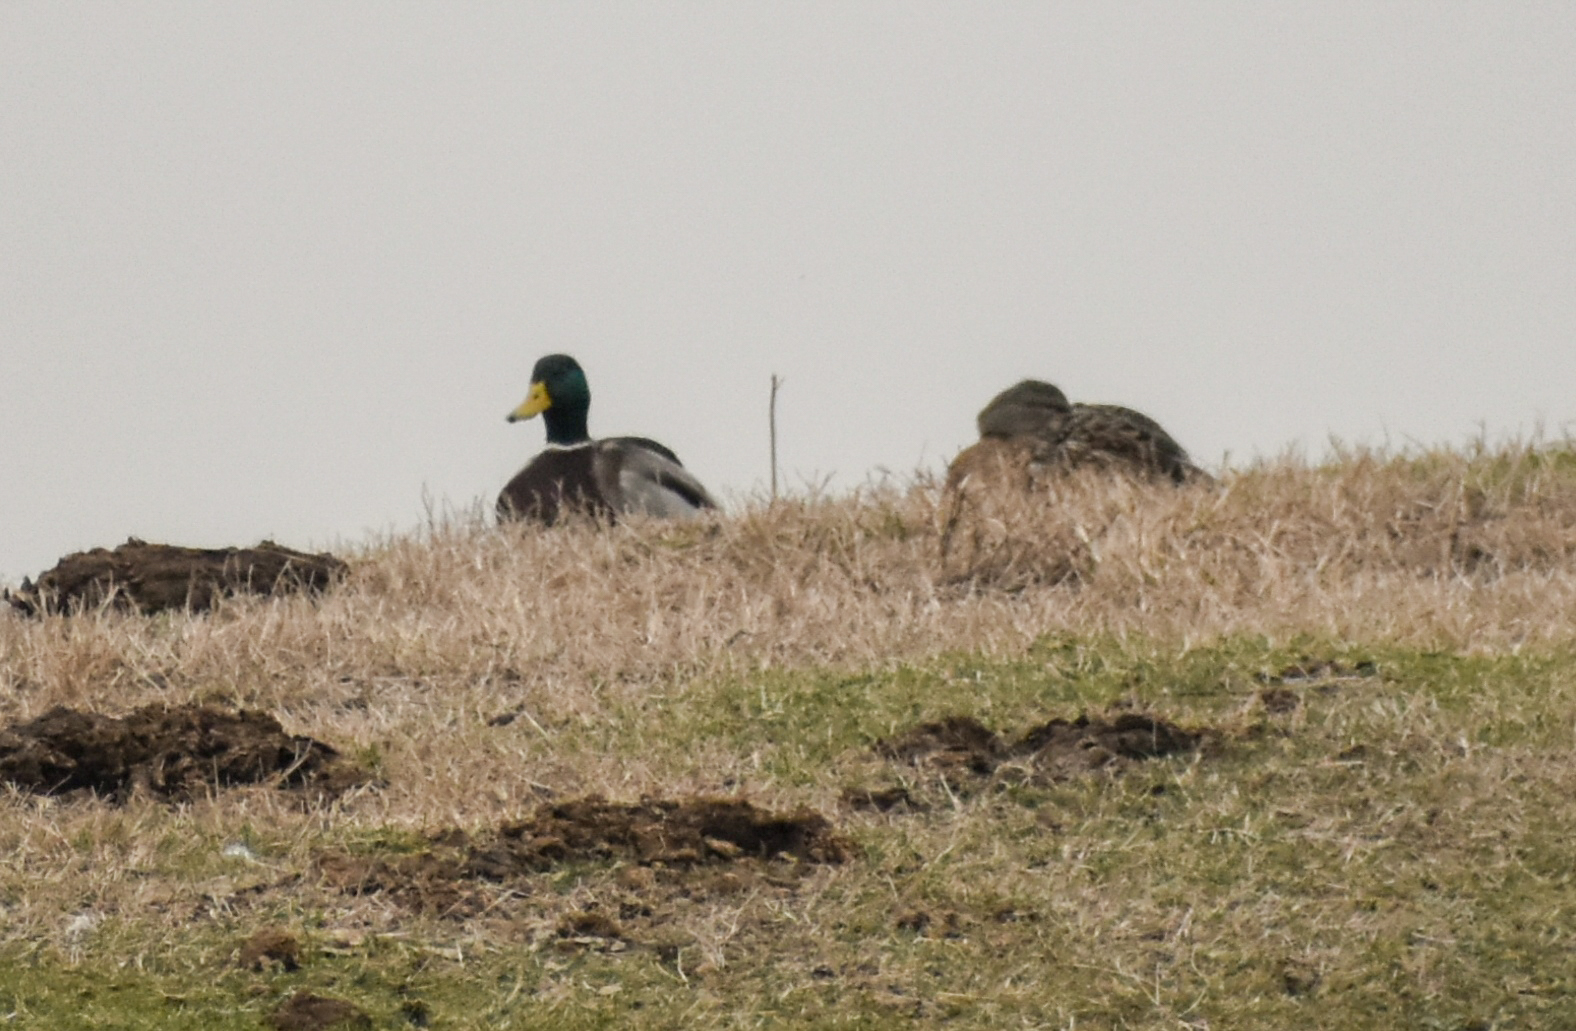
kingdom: Animalia
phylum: Chordata
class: Aves
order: Anseriformes
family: Anatidae
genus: Anas
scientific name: Anas platyrhynchos
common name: Mallard
